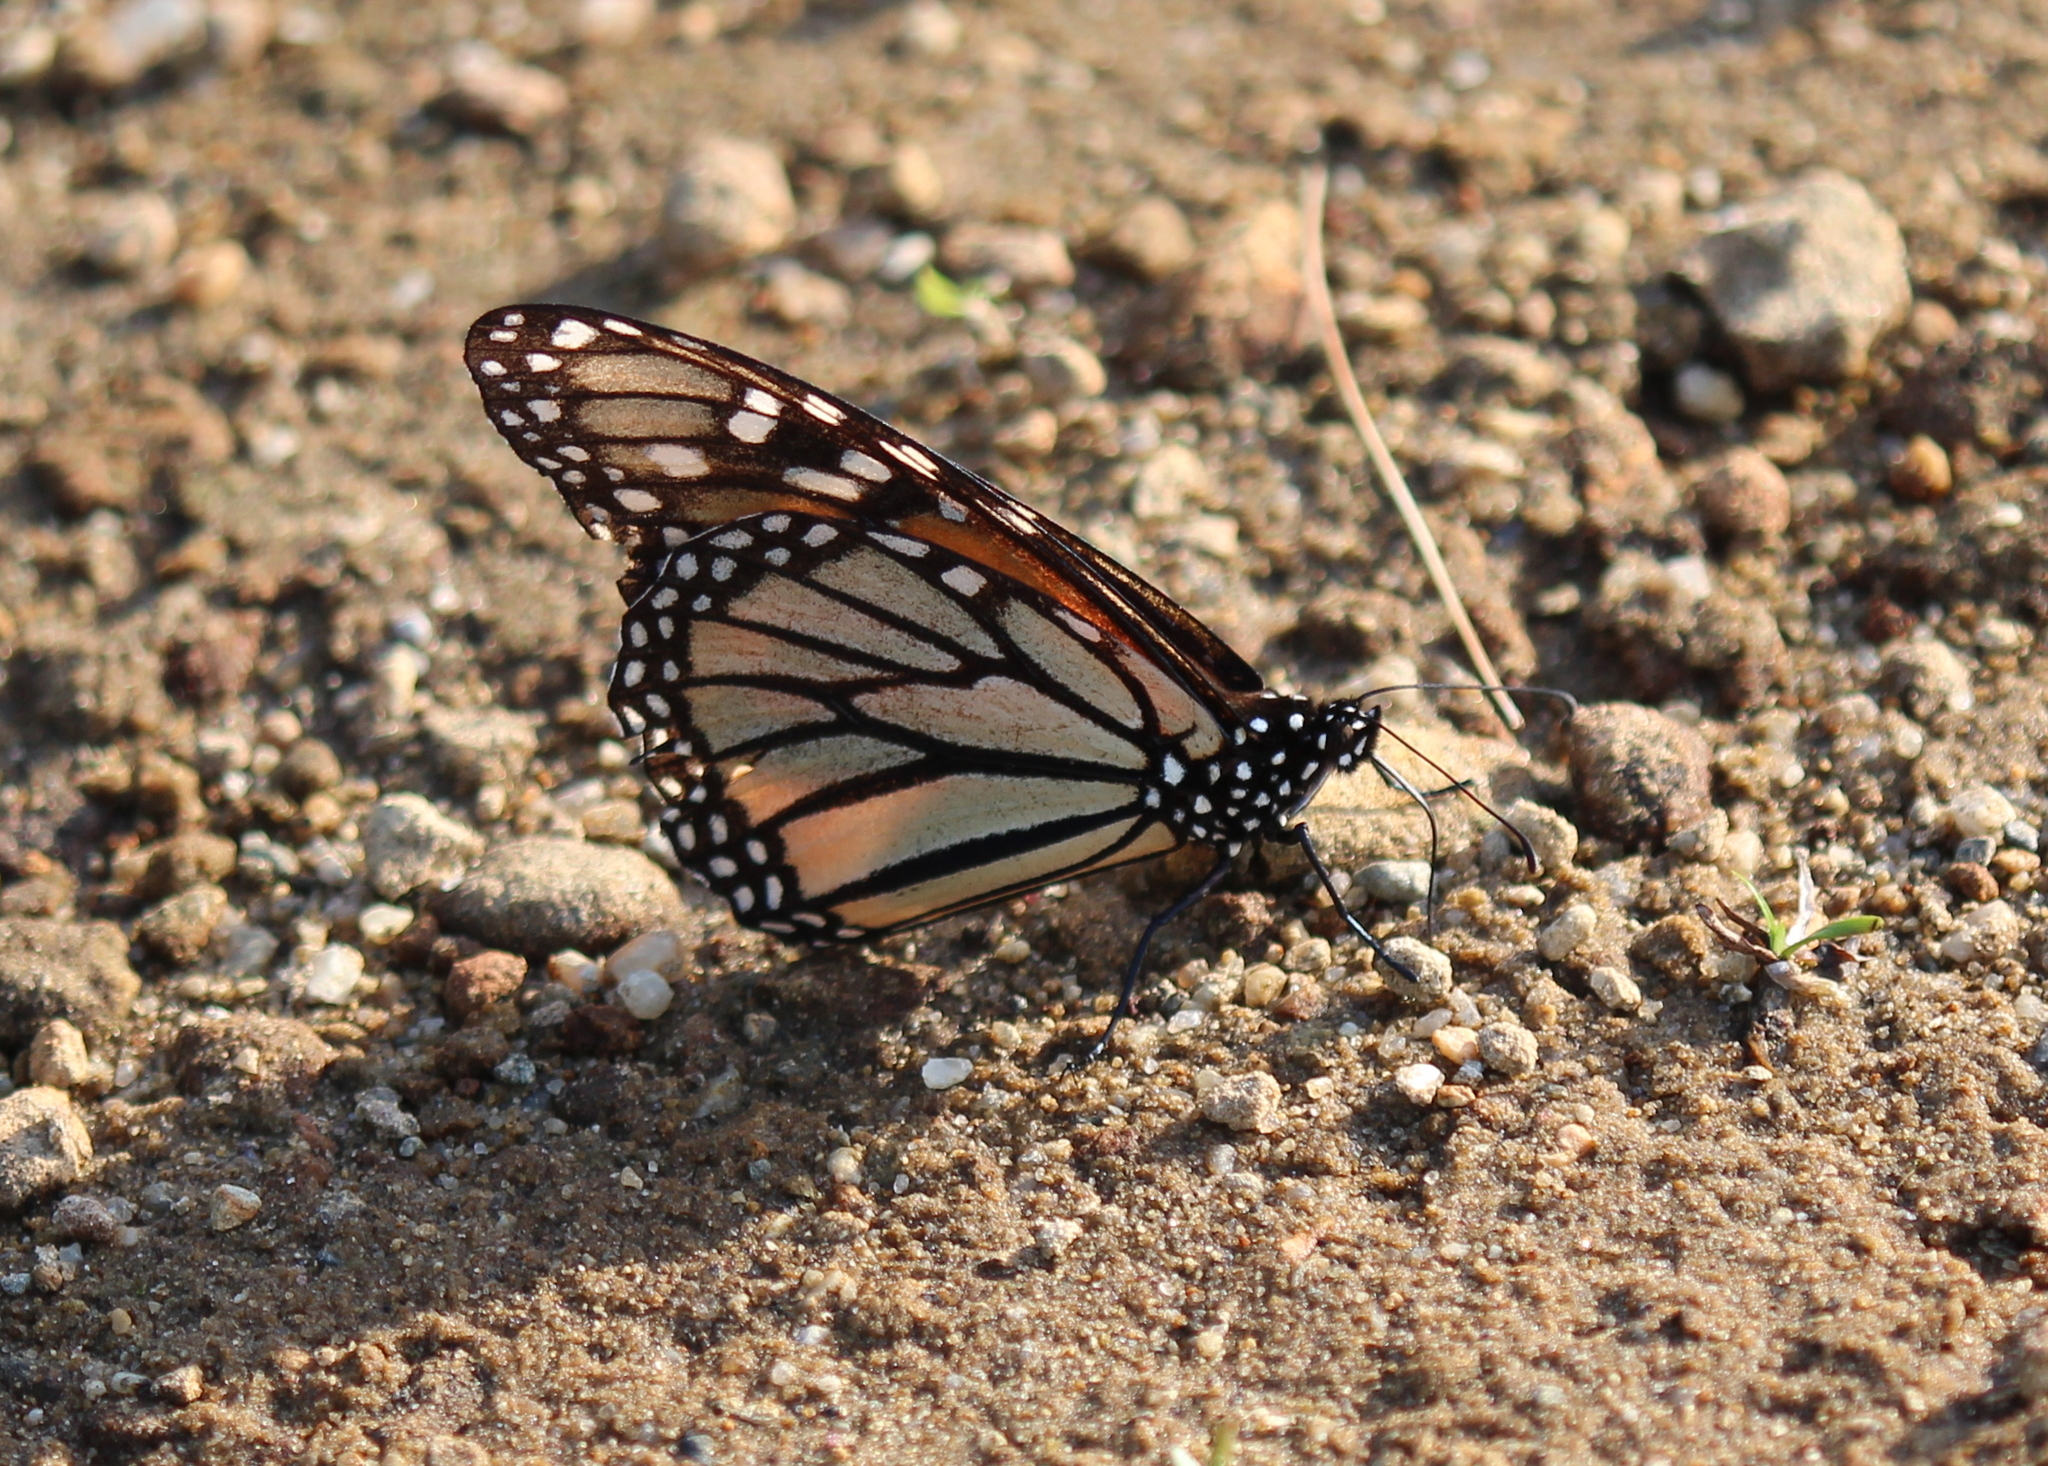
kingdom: Animalia
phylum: Arthropoda
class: Insecta
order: Lepidoptera
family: Nymphalidae
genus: Danaus
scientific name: Danaus plexippus
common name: Monarch
